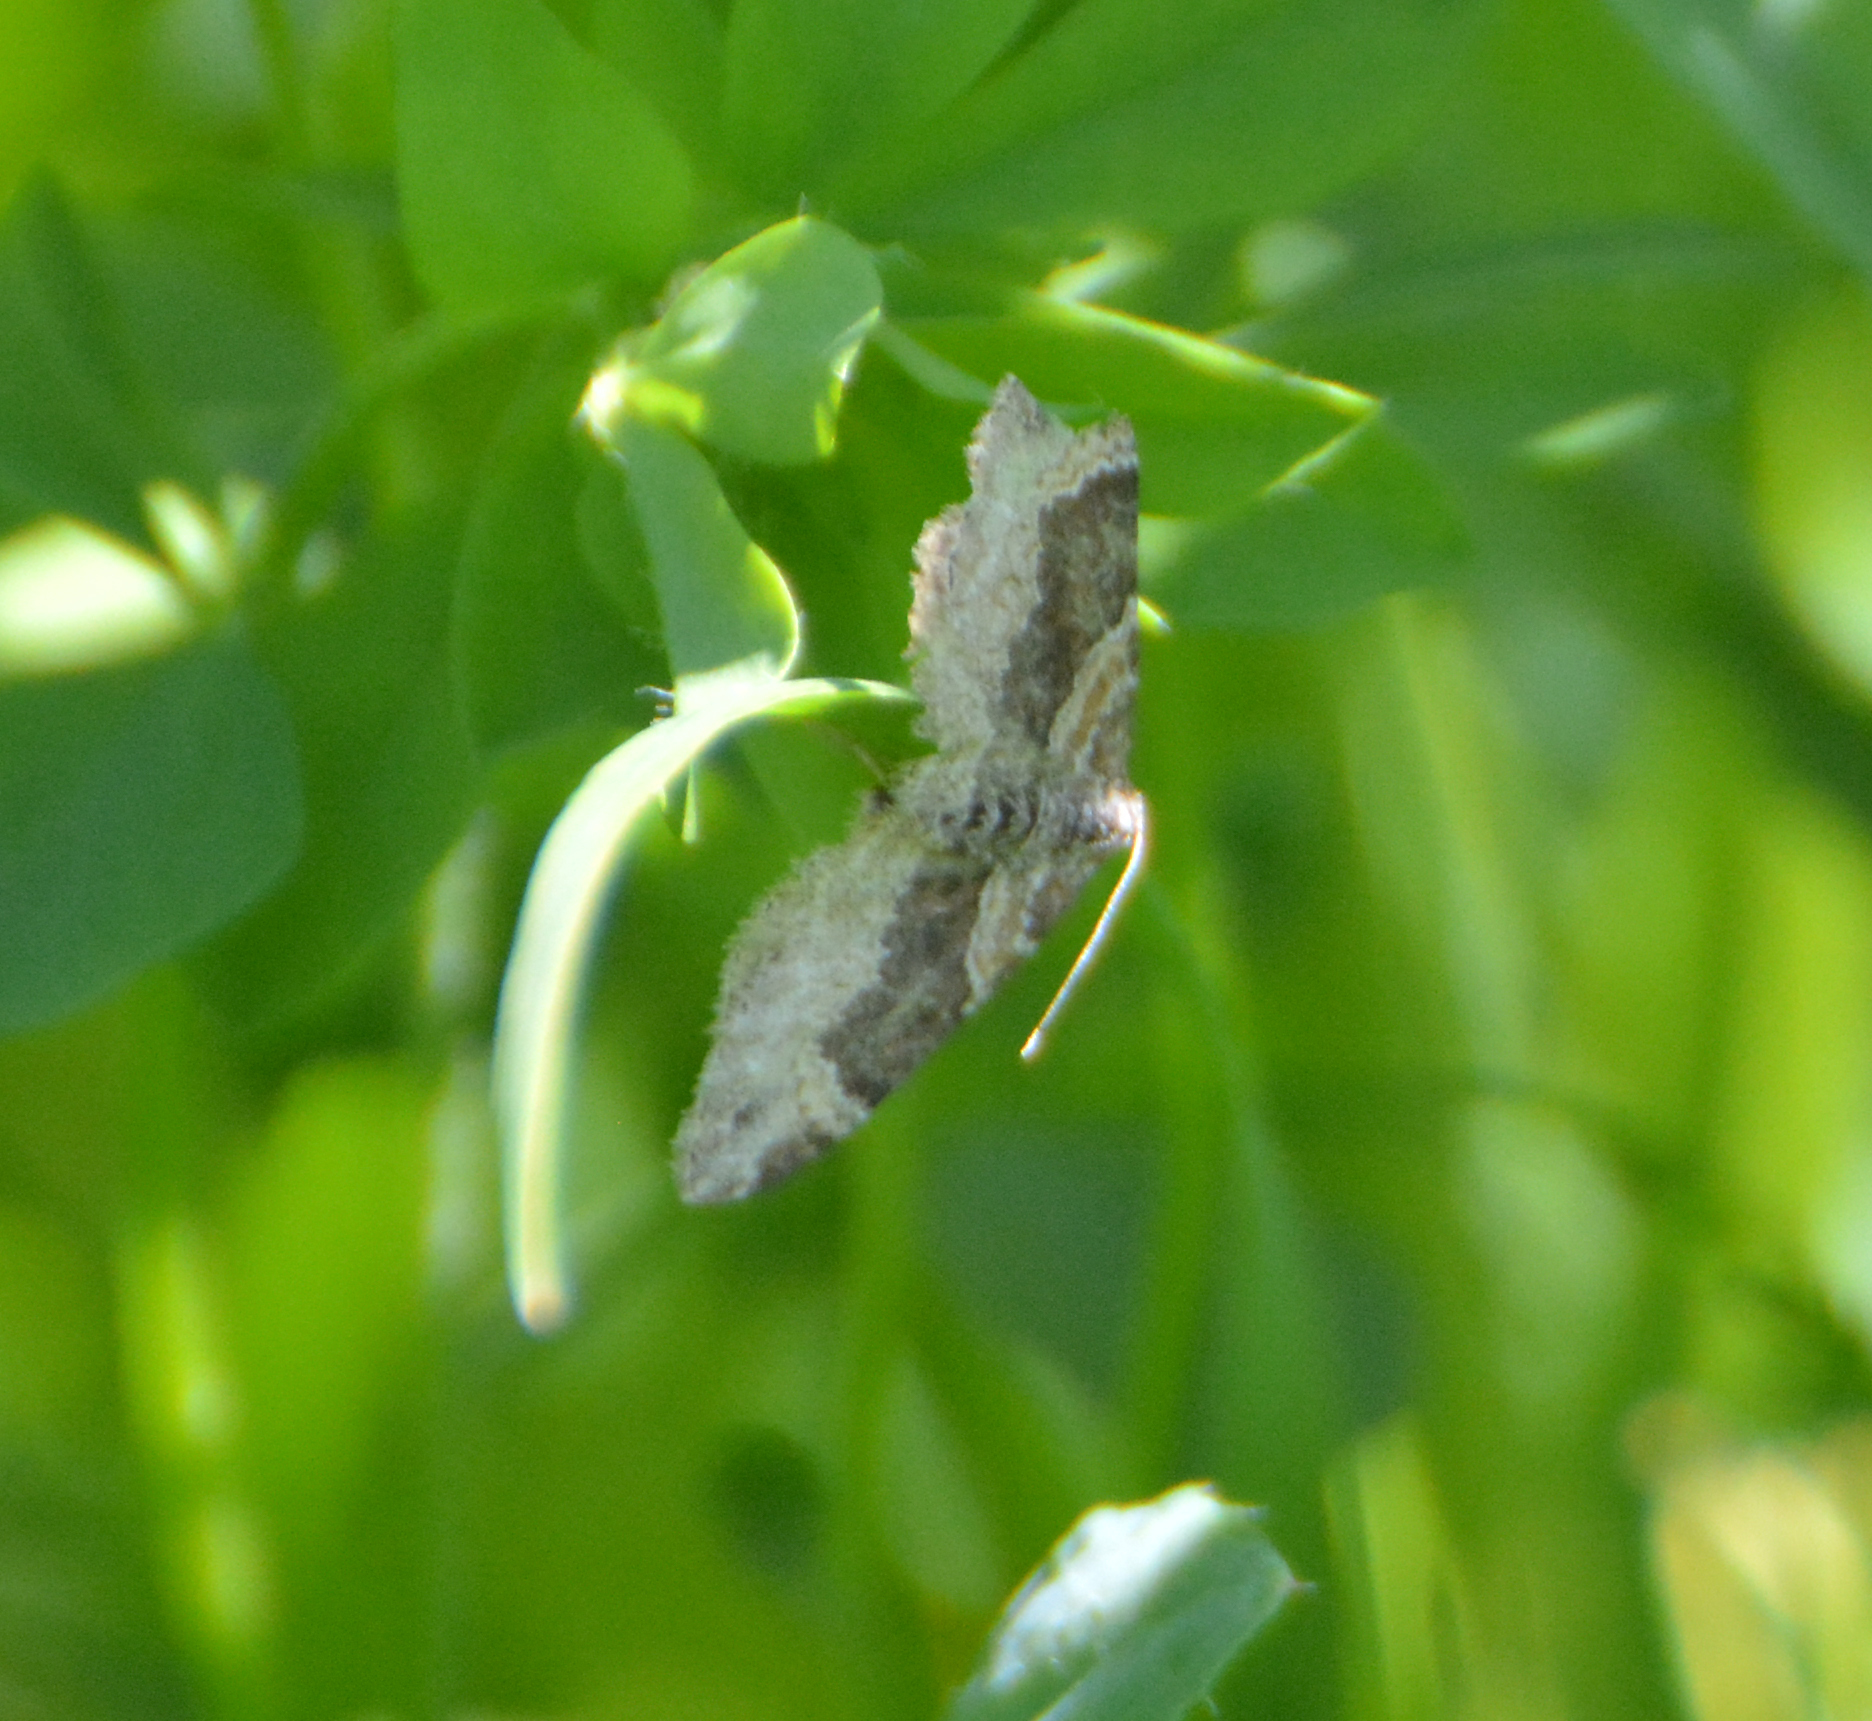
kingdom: Animalia
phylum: Arthropoda
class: Insecta
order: Lepidoptera
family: Geometridae
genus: Xanthorhoe
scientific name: Xanthorhoe ferrugata
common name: Dark-barred twin-spot carpet
